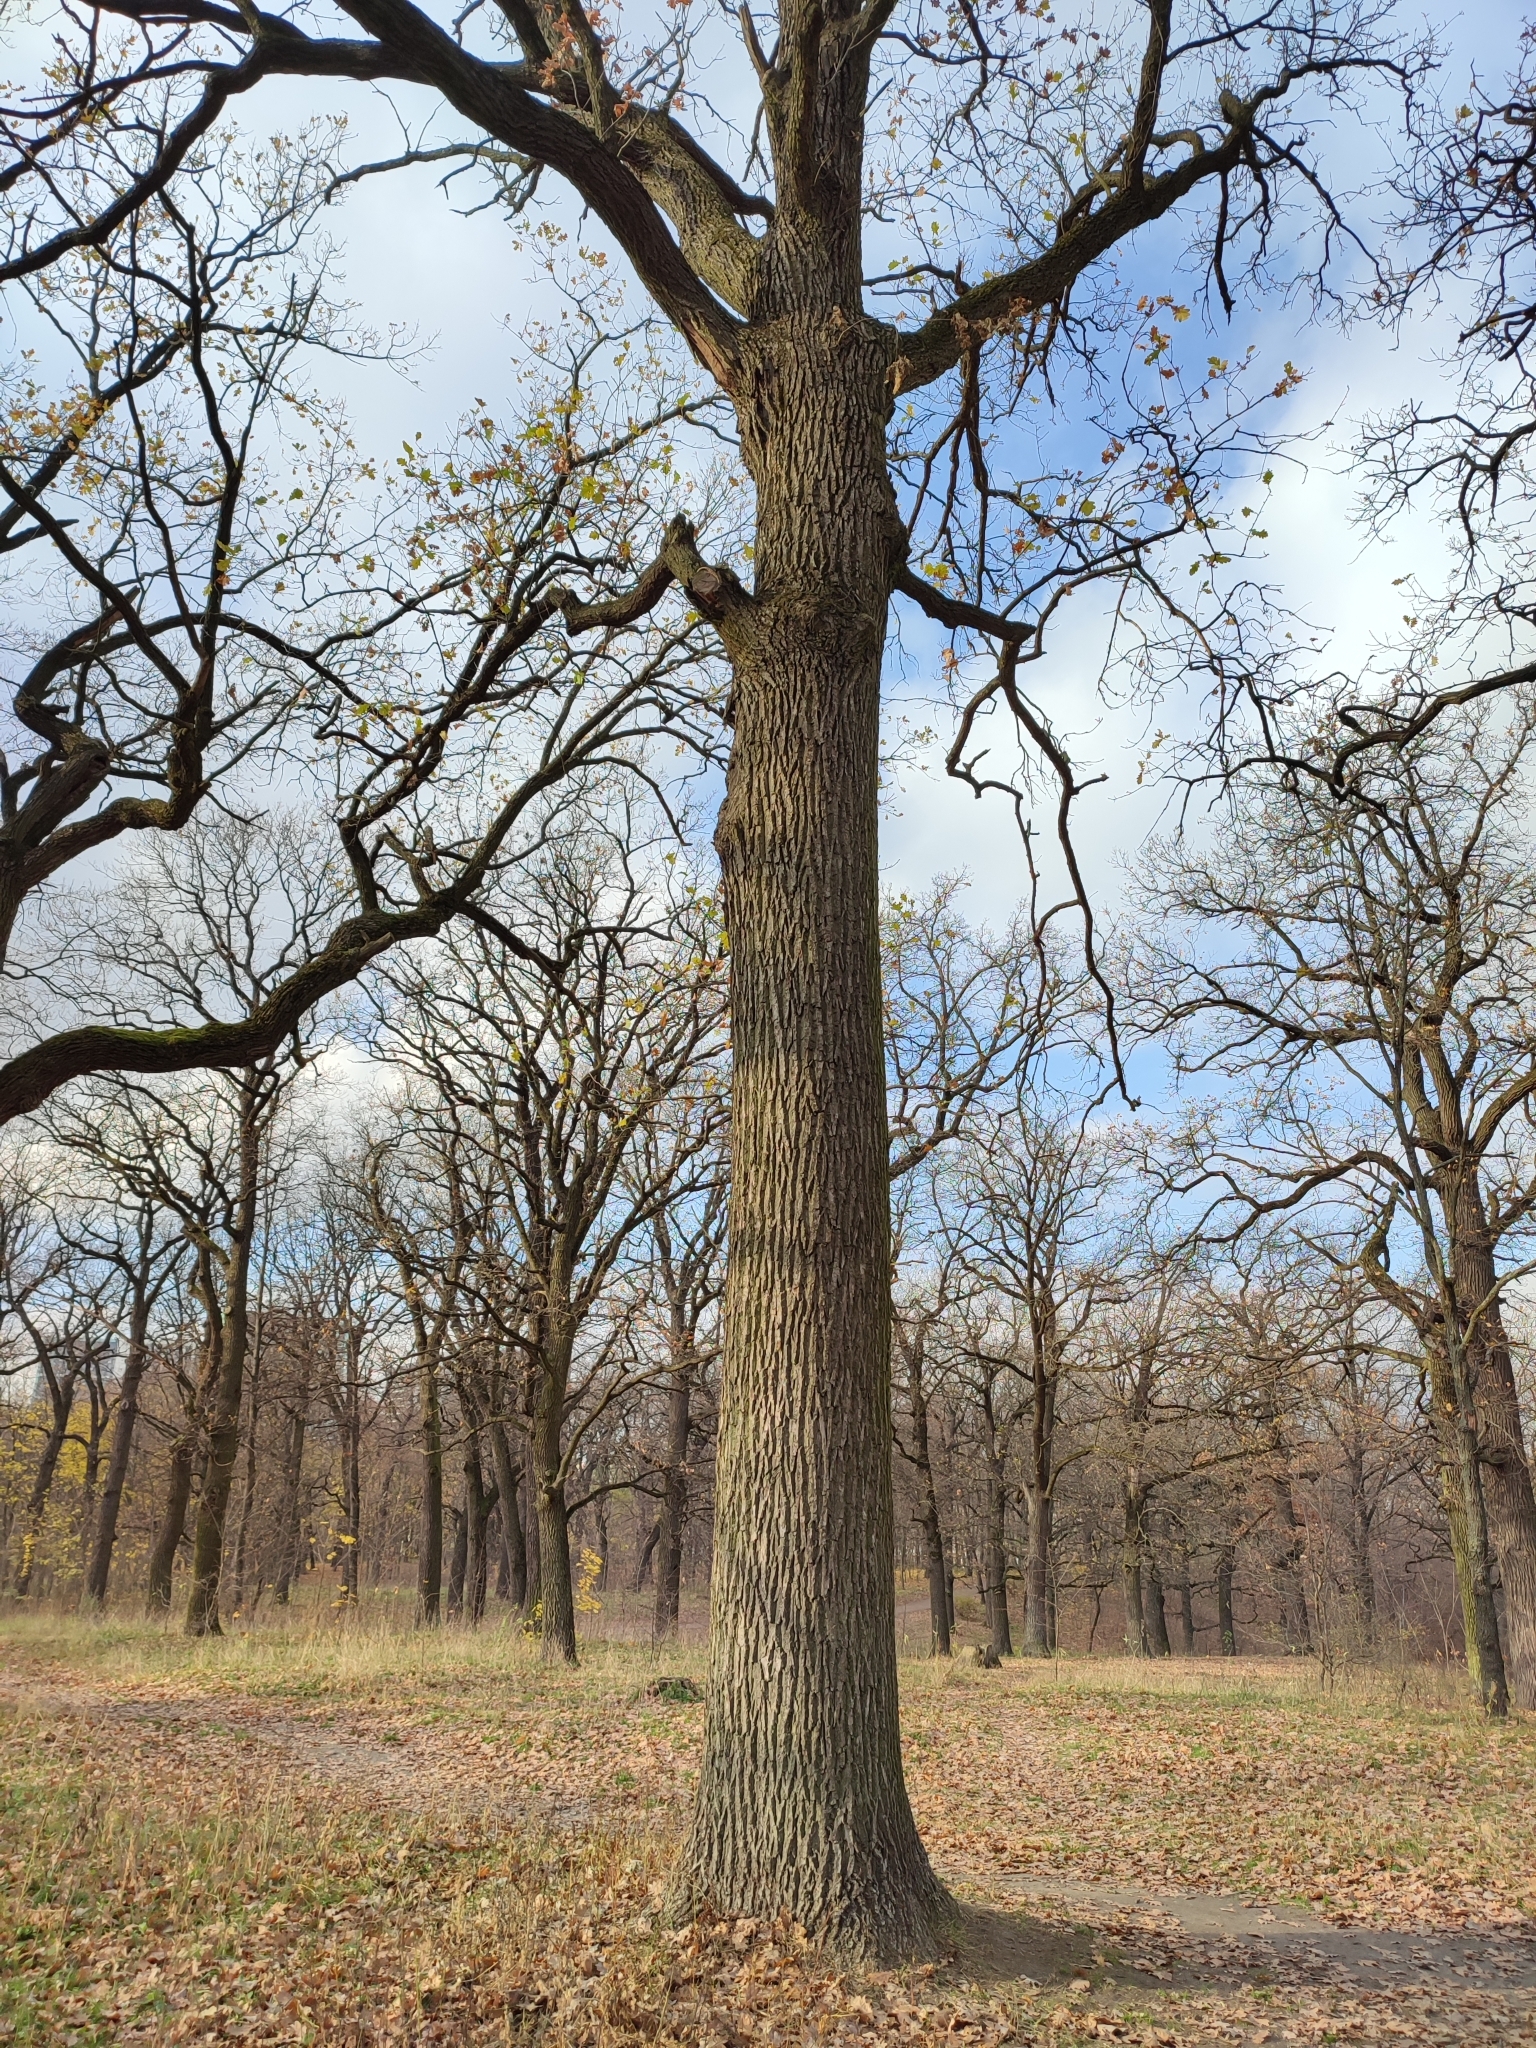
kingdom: Plantae
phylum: Tracheophyta
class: Magnoliopsida
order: Fagales
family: Fagaceae
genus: Quercus
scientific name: Quercus robur
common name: Pedunculate oak
